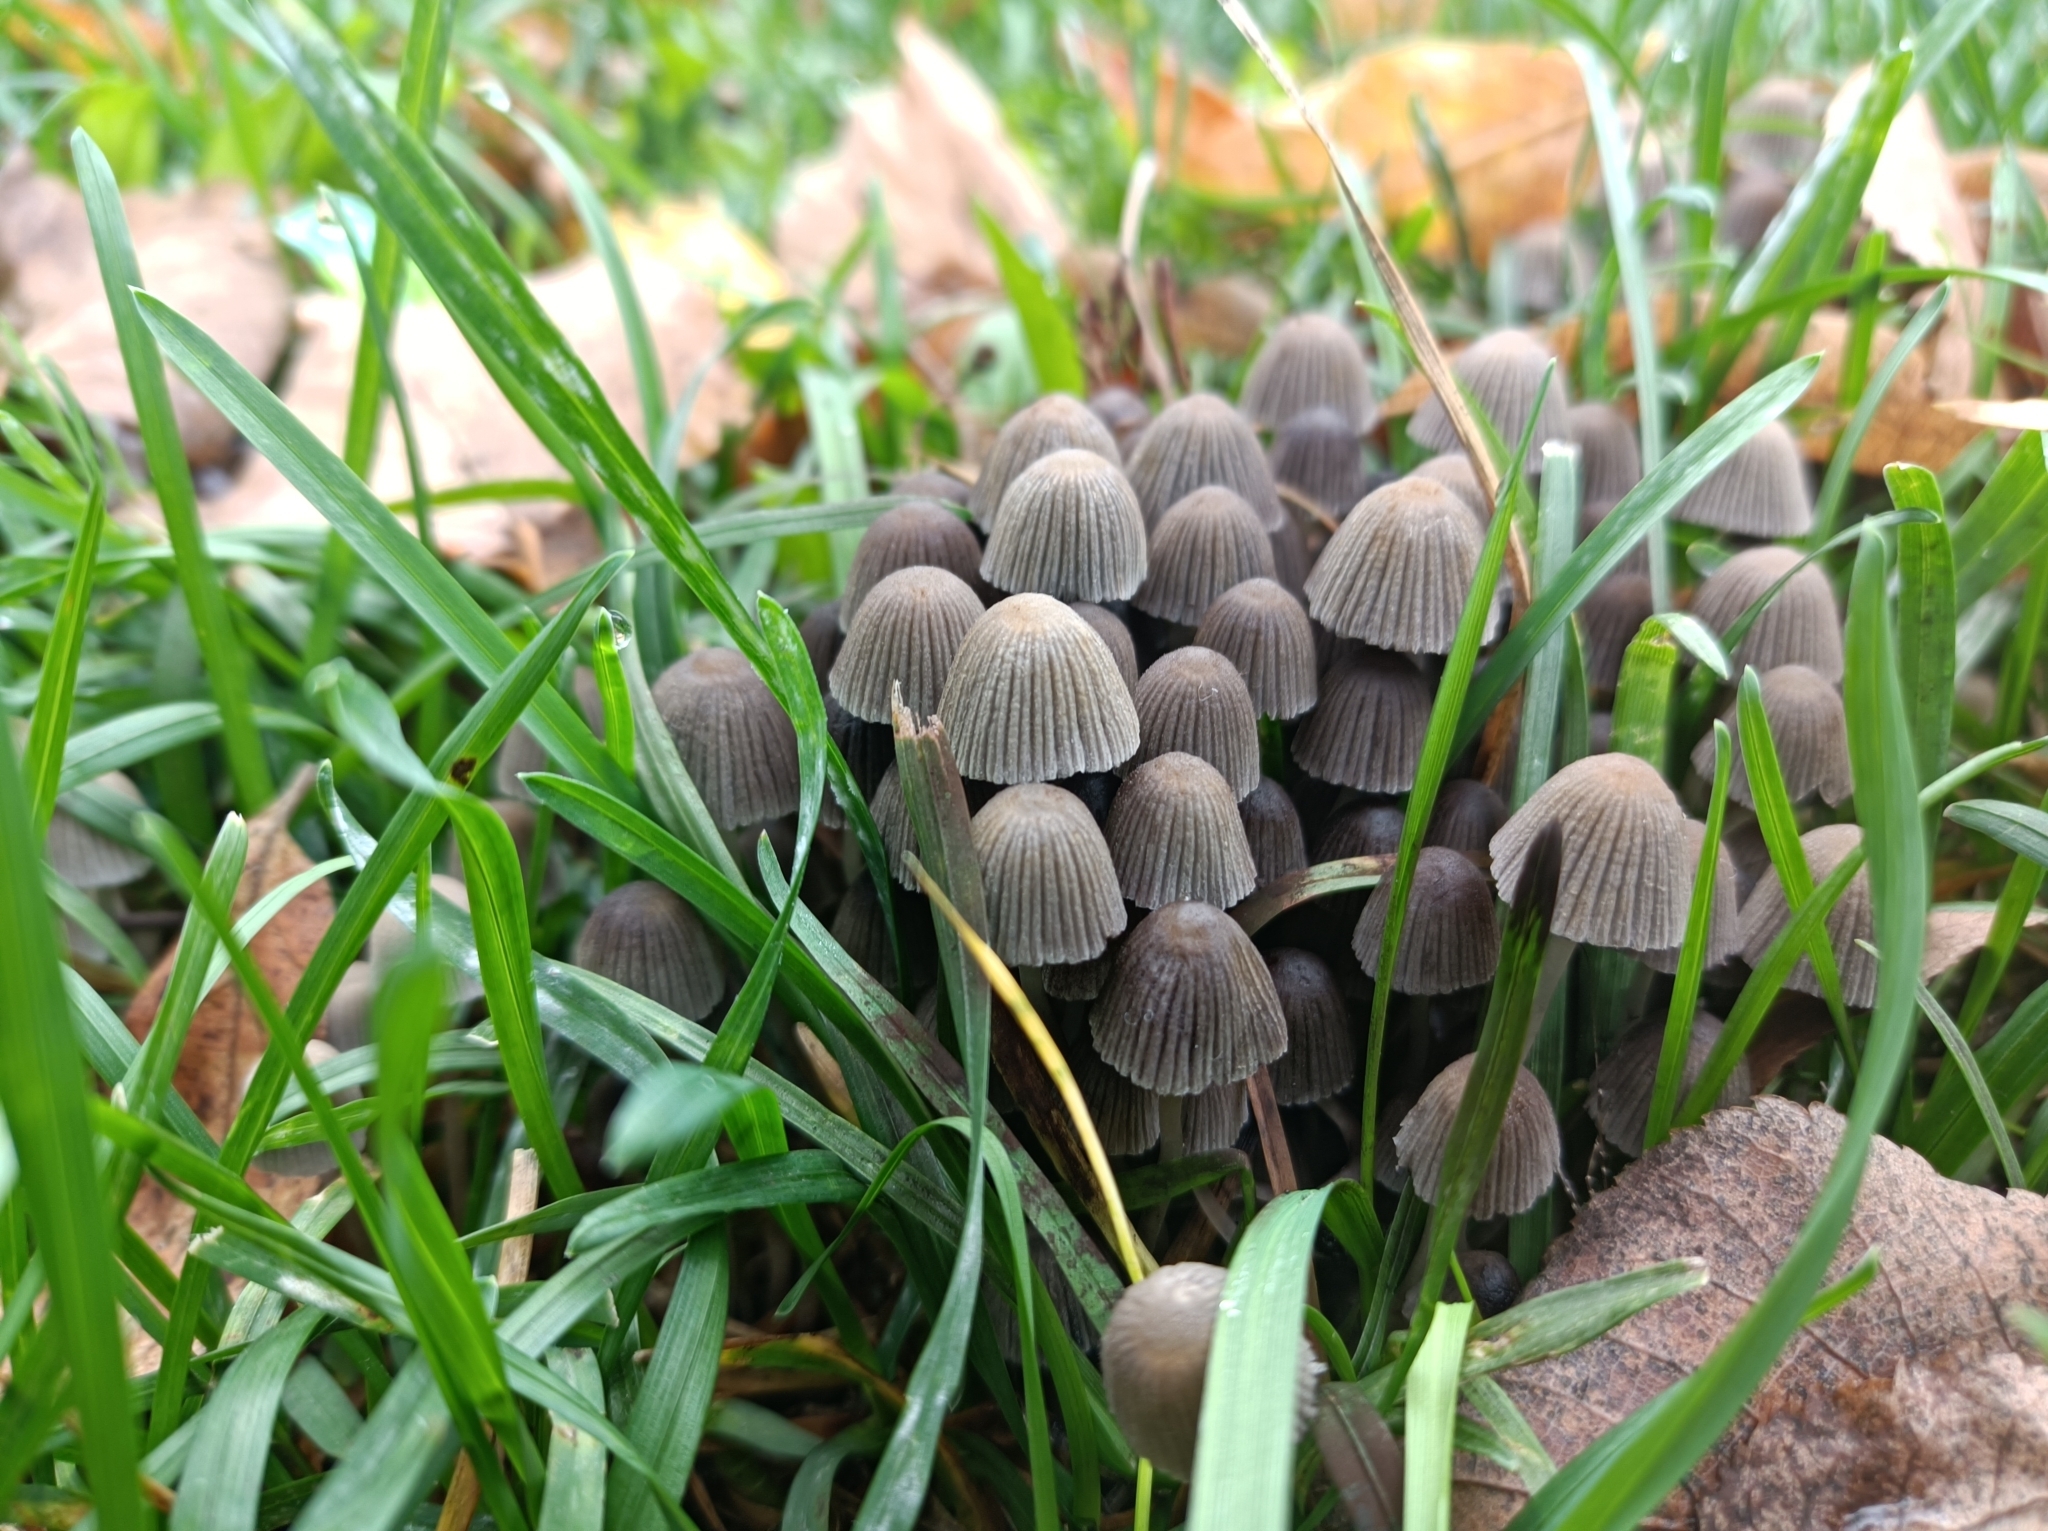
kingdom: Fungi
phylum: Basidiomycota
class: Agaricomycetes
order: Agaricales
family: Psathyrellaceae
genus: Coprinellus
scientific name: Coprinellus disseminatus
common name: Fairies' bonnets
